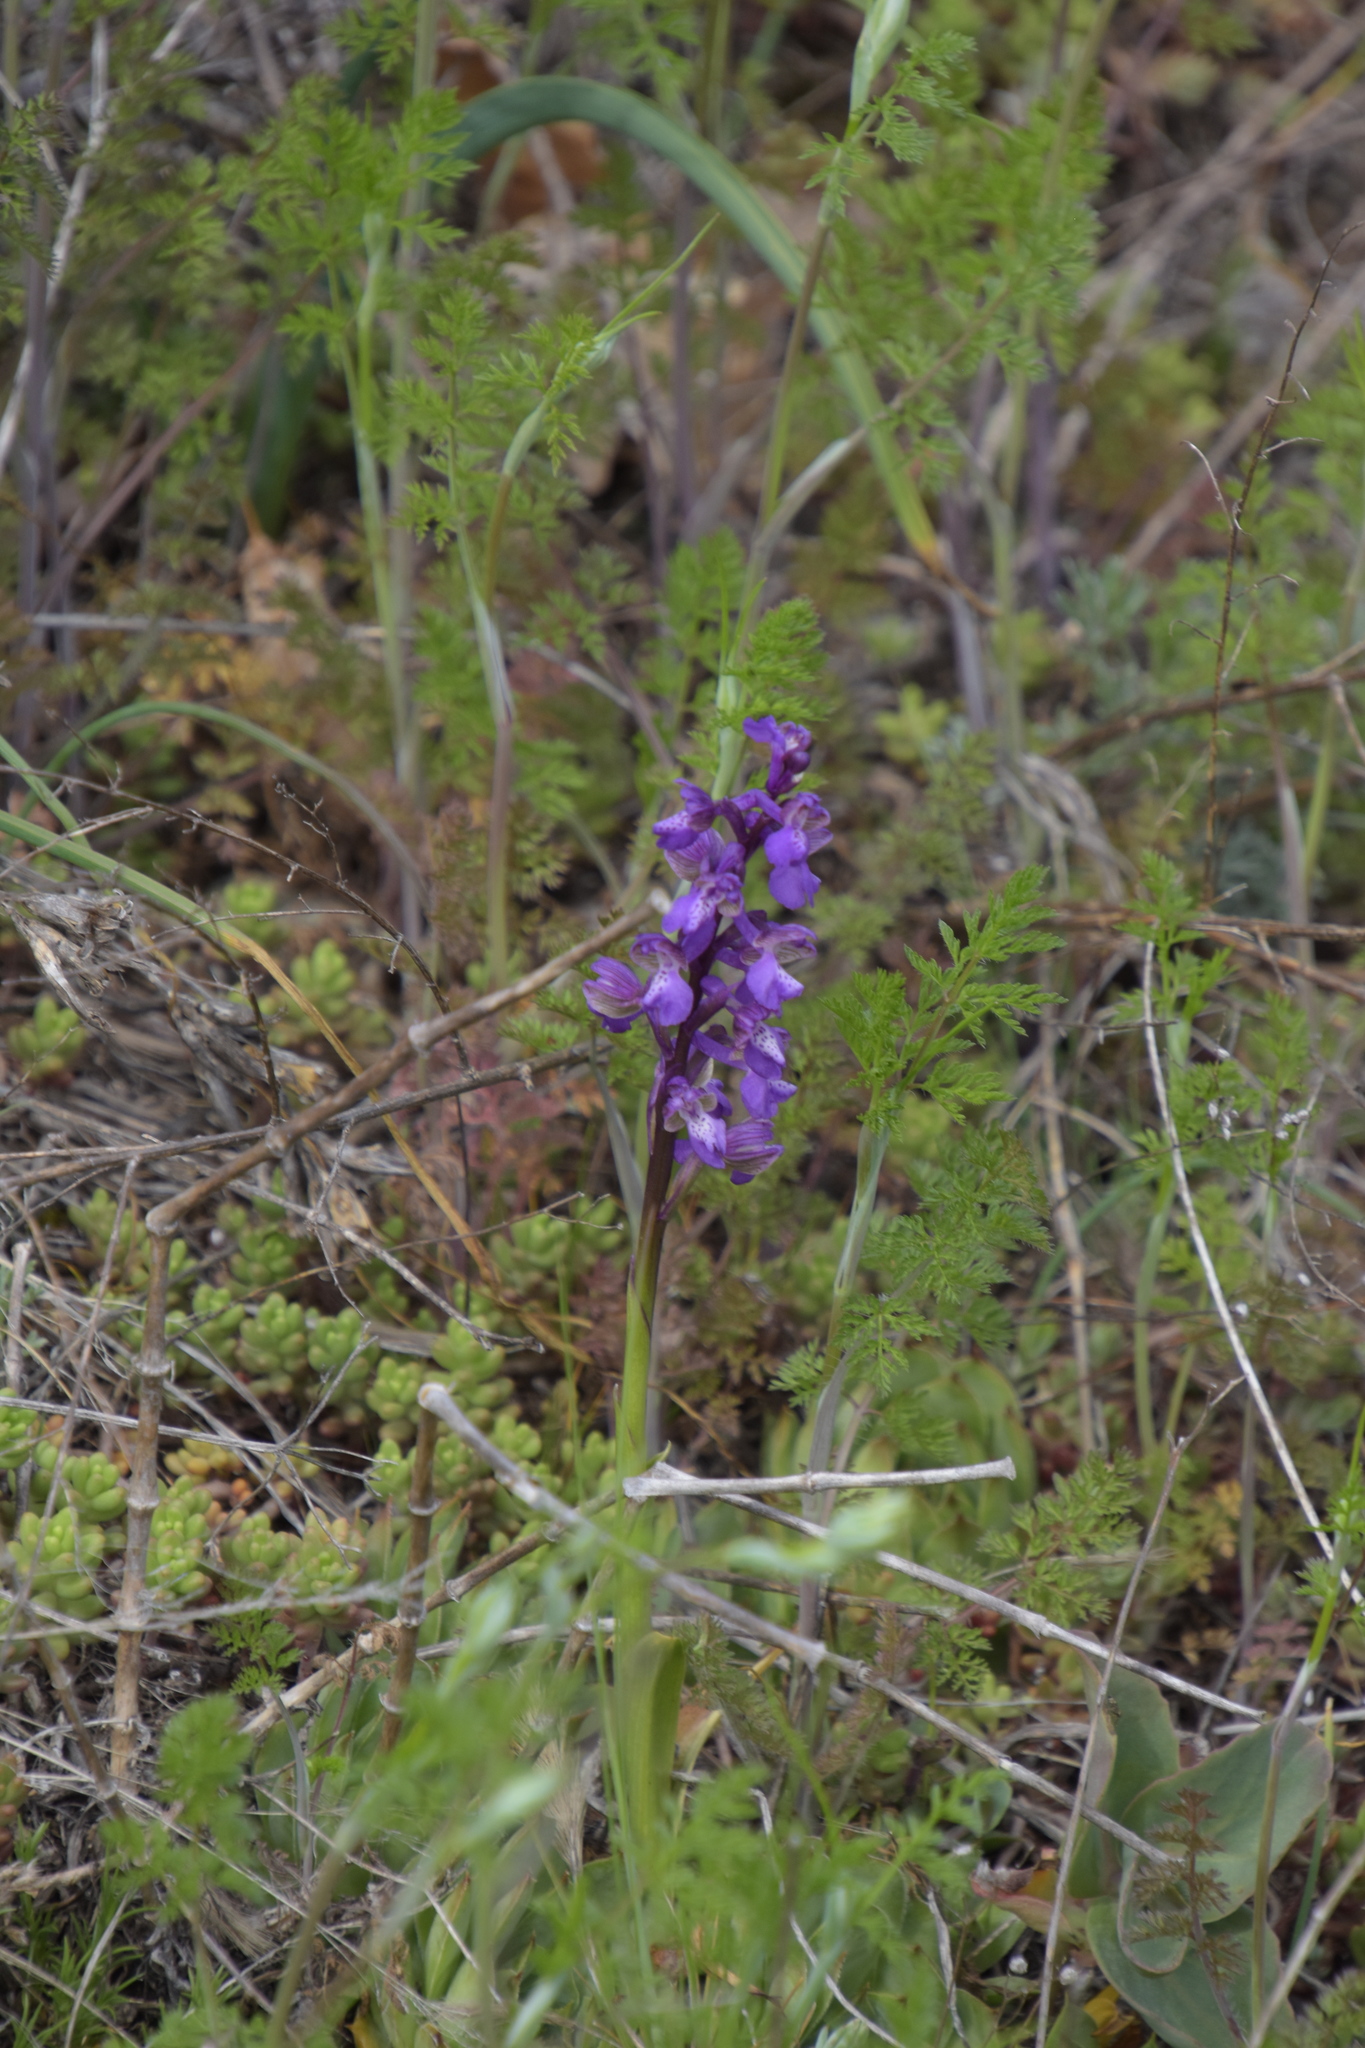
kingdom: Plantae
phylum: Tracheophyta
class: Liliopsida
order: Asparagales
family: Orchidaceae
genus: Anacamptis
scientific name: Anacamptis morio
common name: Green-winged orchid
